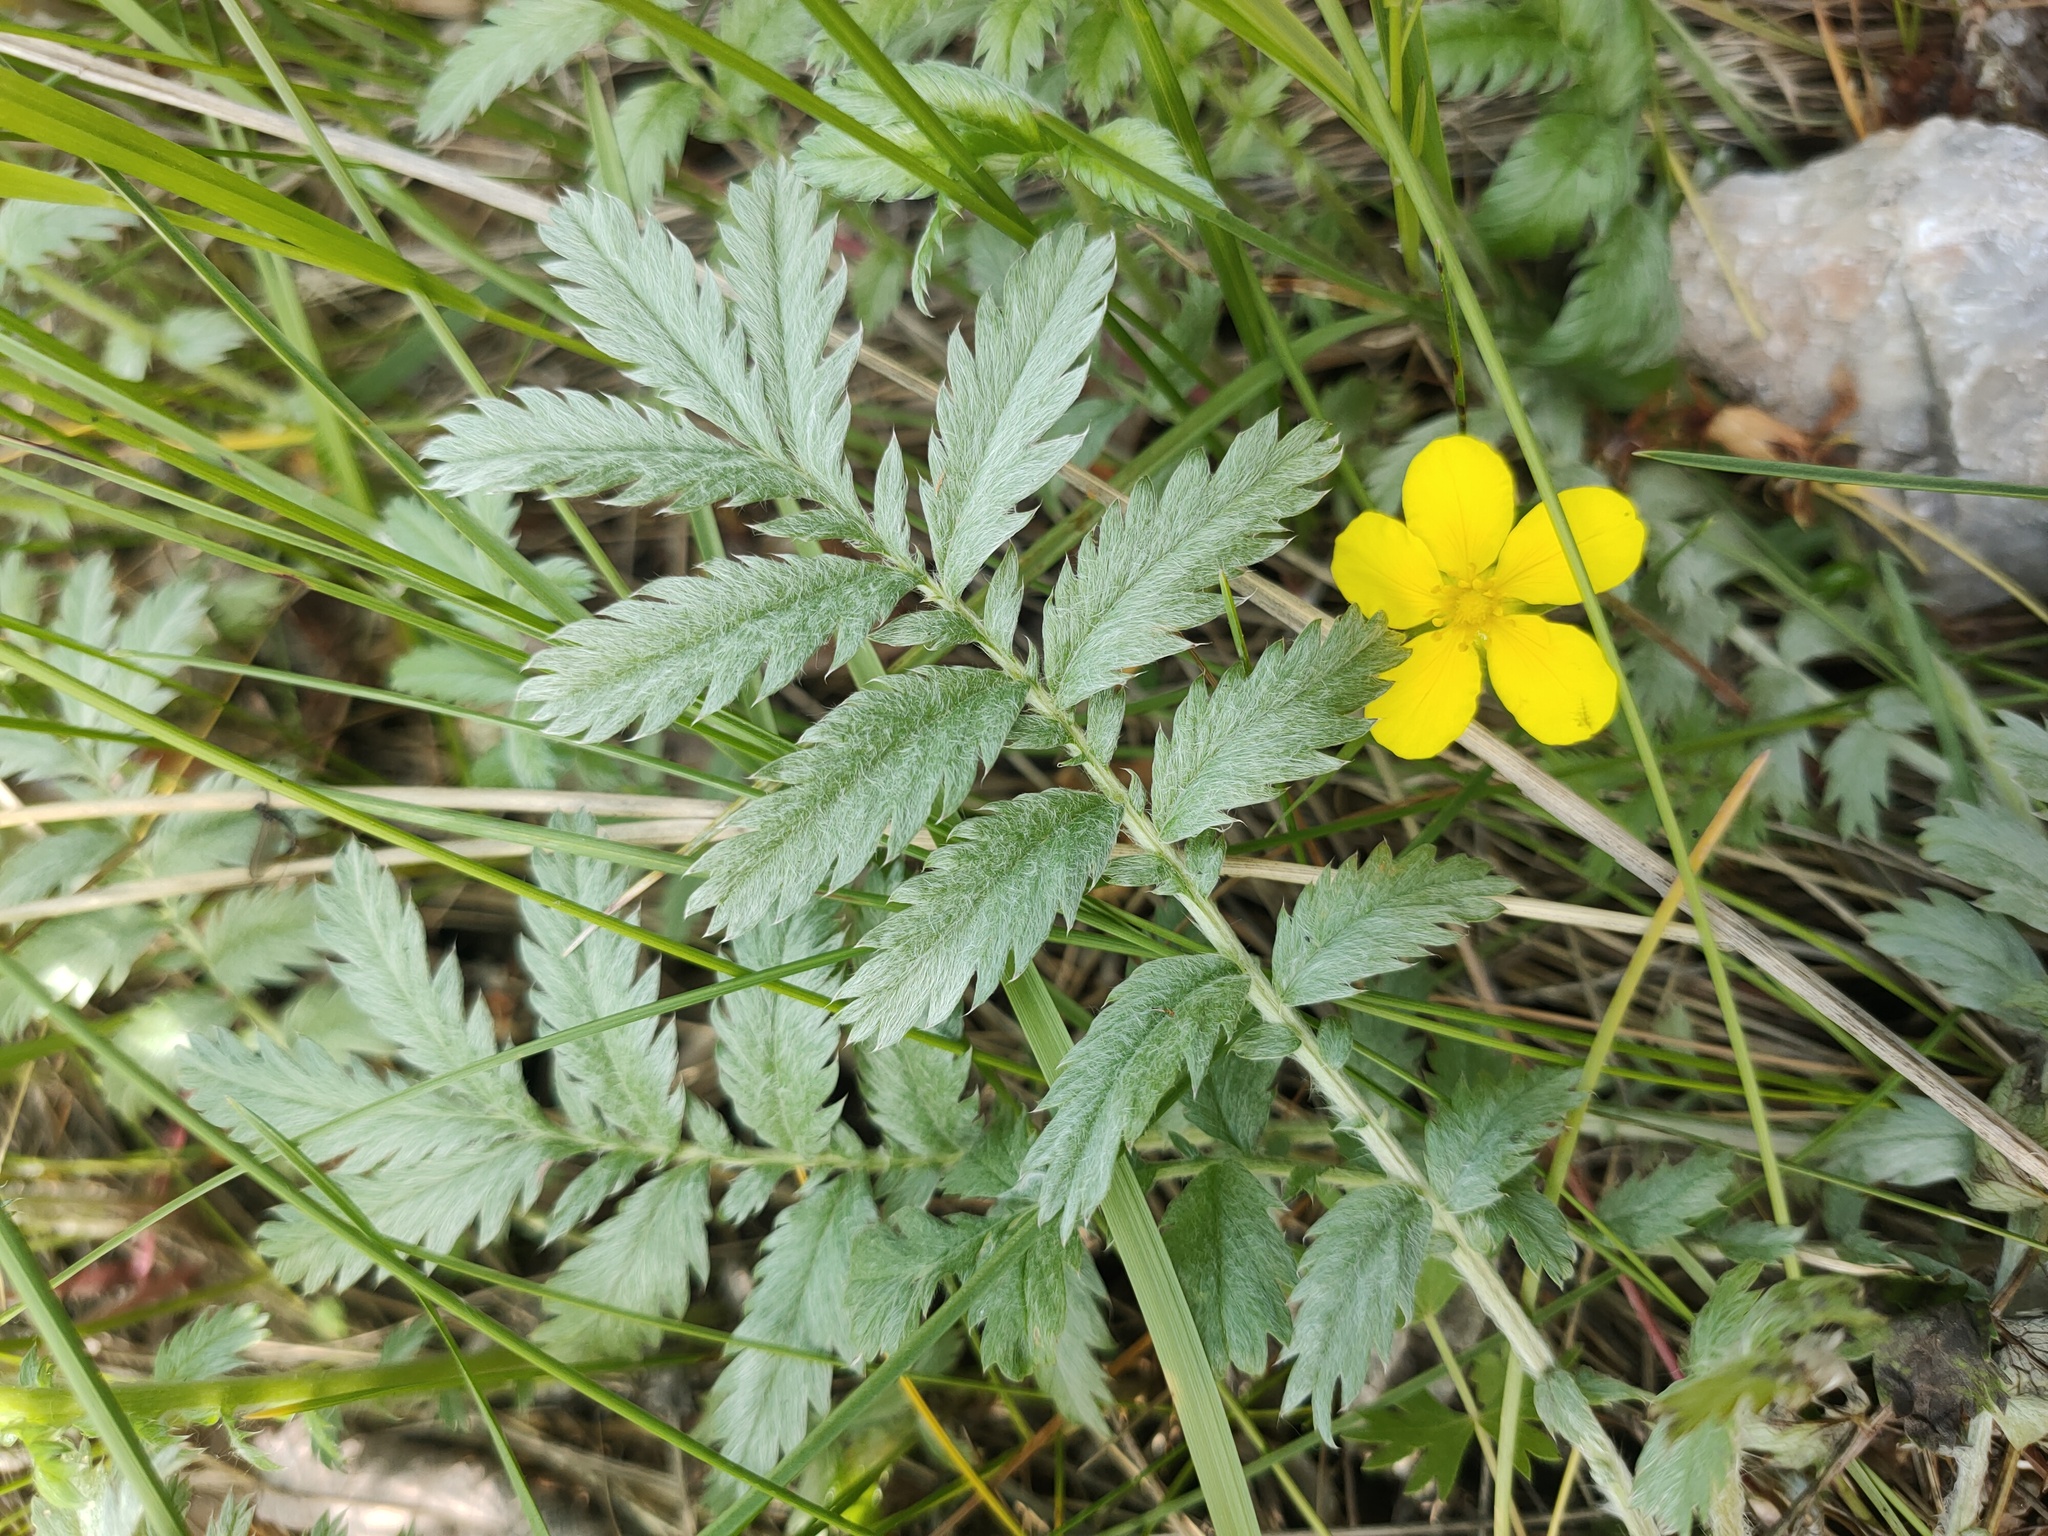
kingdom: Plantae
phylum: Tracheophyta
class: Magnoliopsida
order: Rosales
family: Rosaceae
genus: Argentina
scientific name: Argentina anserina
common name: Common silverweed
